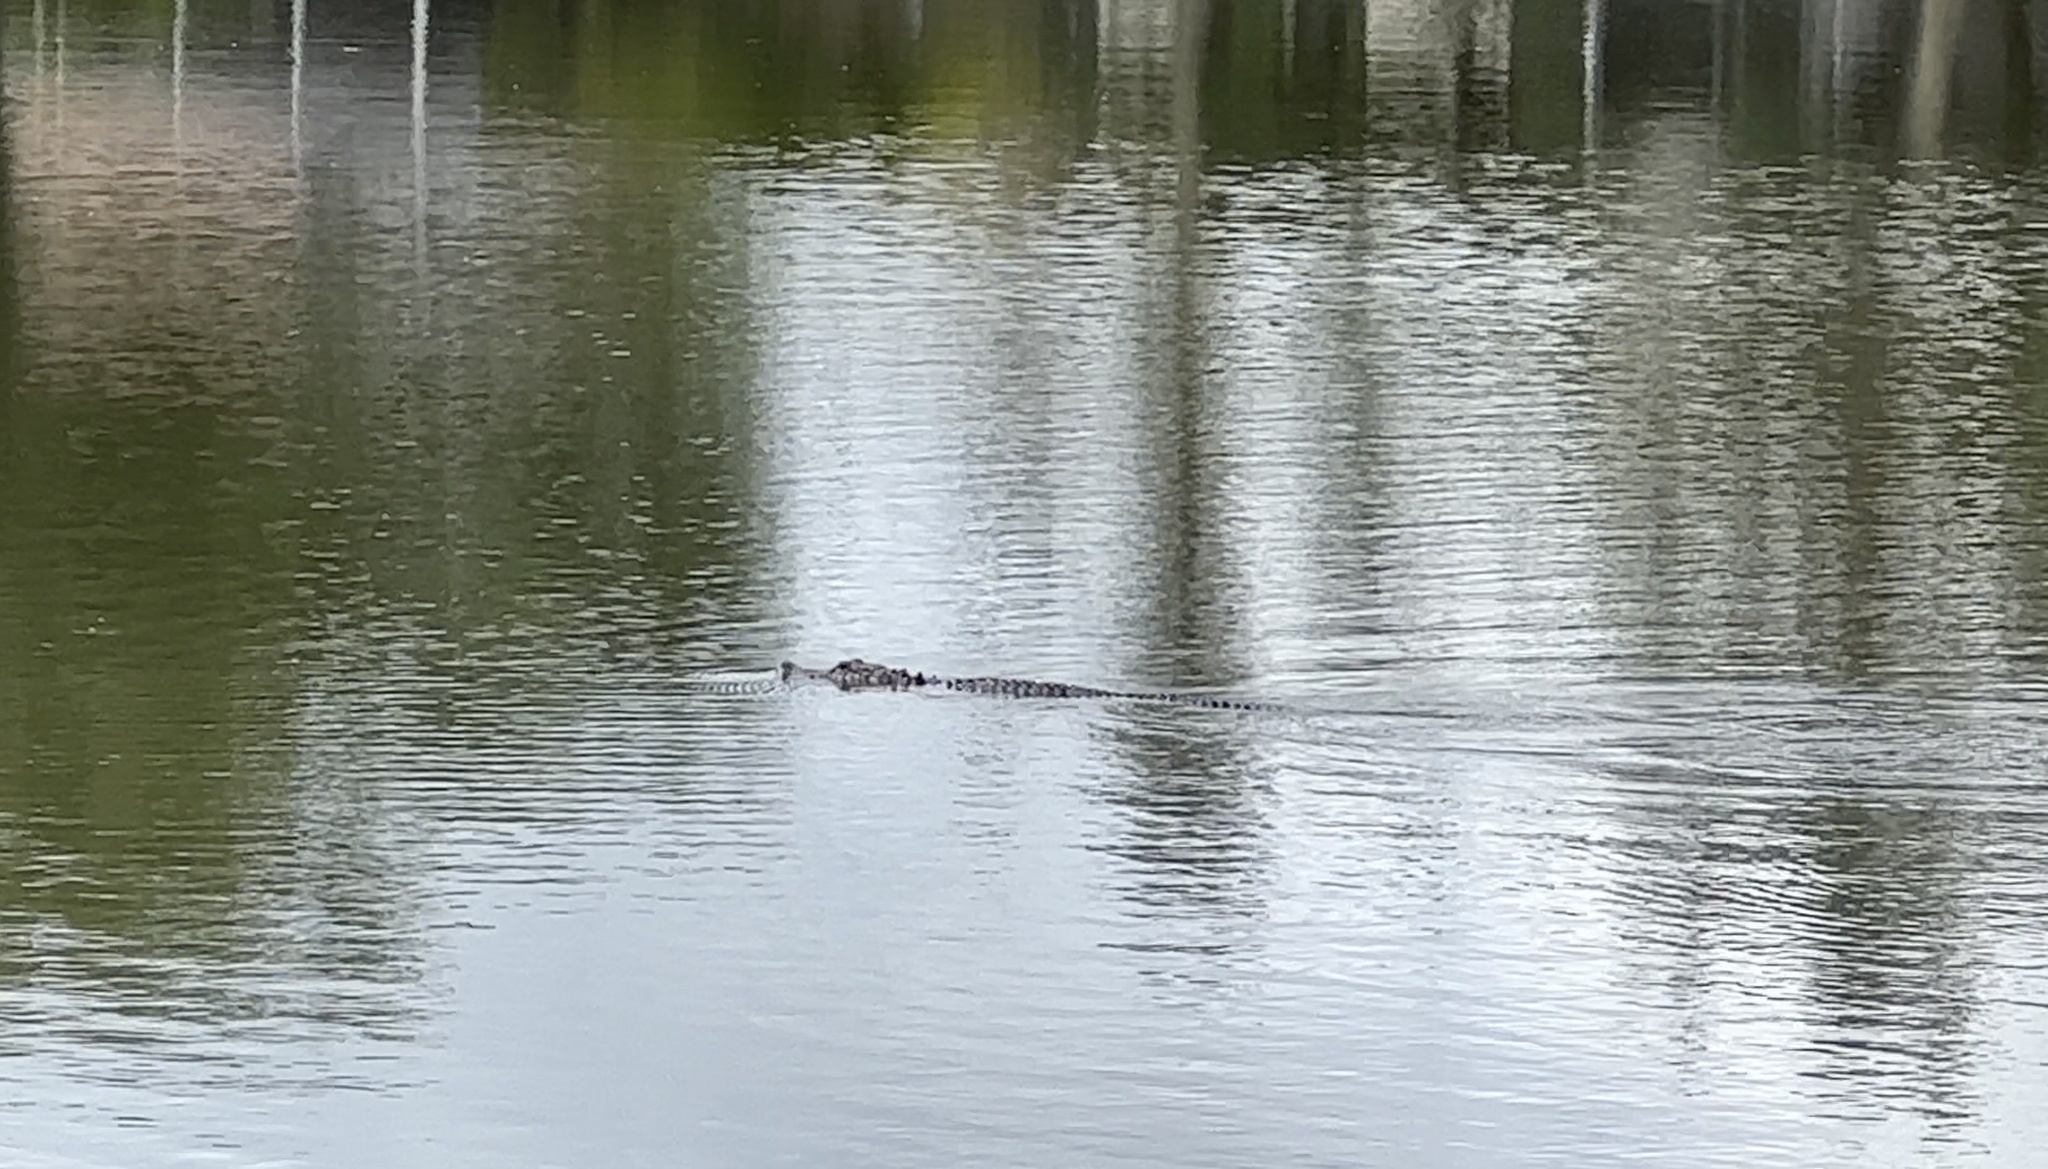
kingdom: Animalia
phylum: Chordata
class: Crocodylia
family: Alligatoridae
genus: Alligator
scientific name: Alligator mississippiensis
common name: American alligator
